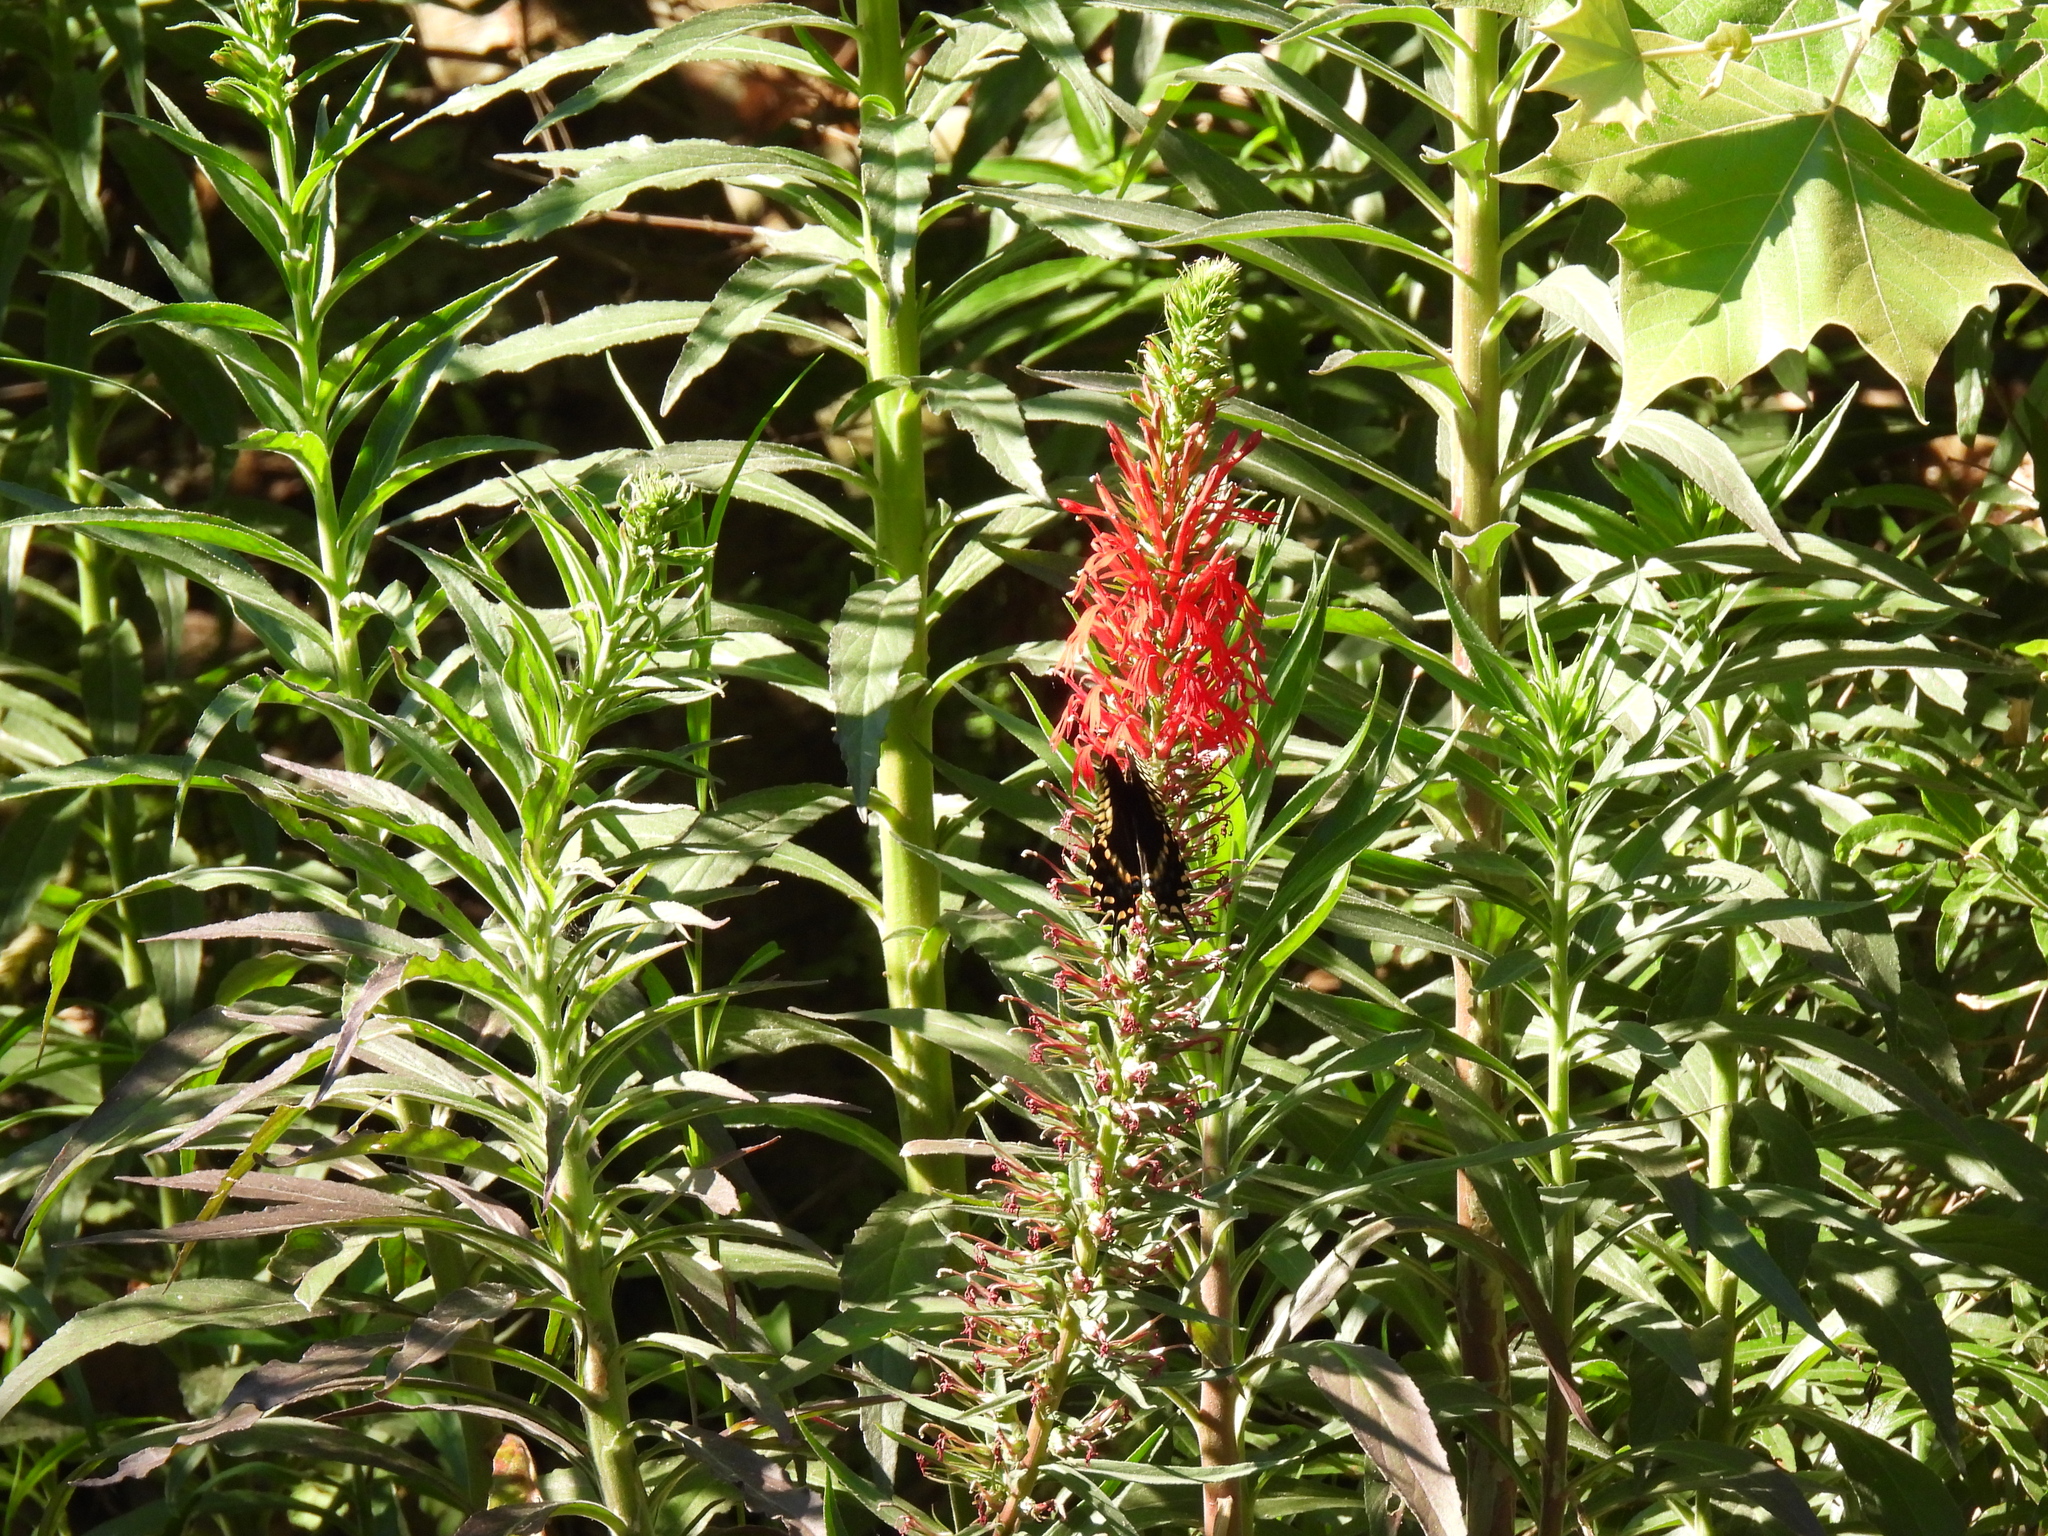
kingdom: Plantae
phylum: Tracheophyta
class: Magnoliopsida
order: Asterales
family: Campanulaceae
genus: Lobelia
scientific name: Lobelia cardinalis
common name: Cardinal flower
